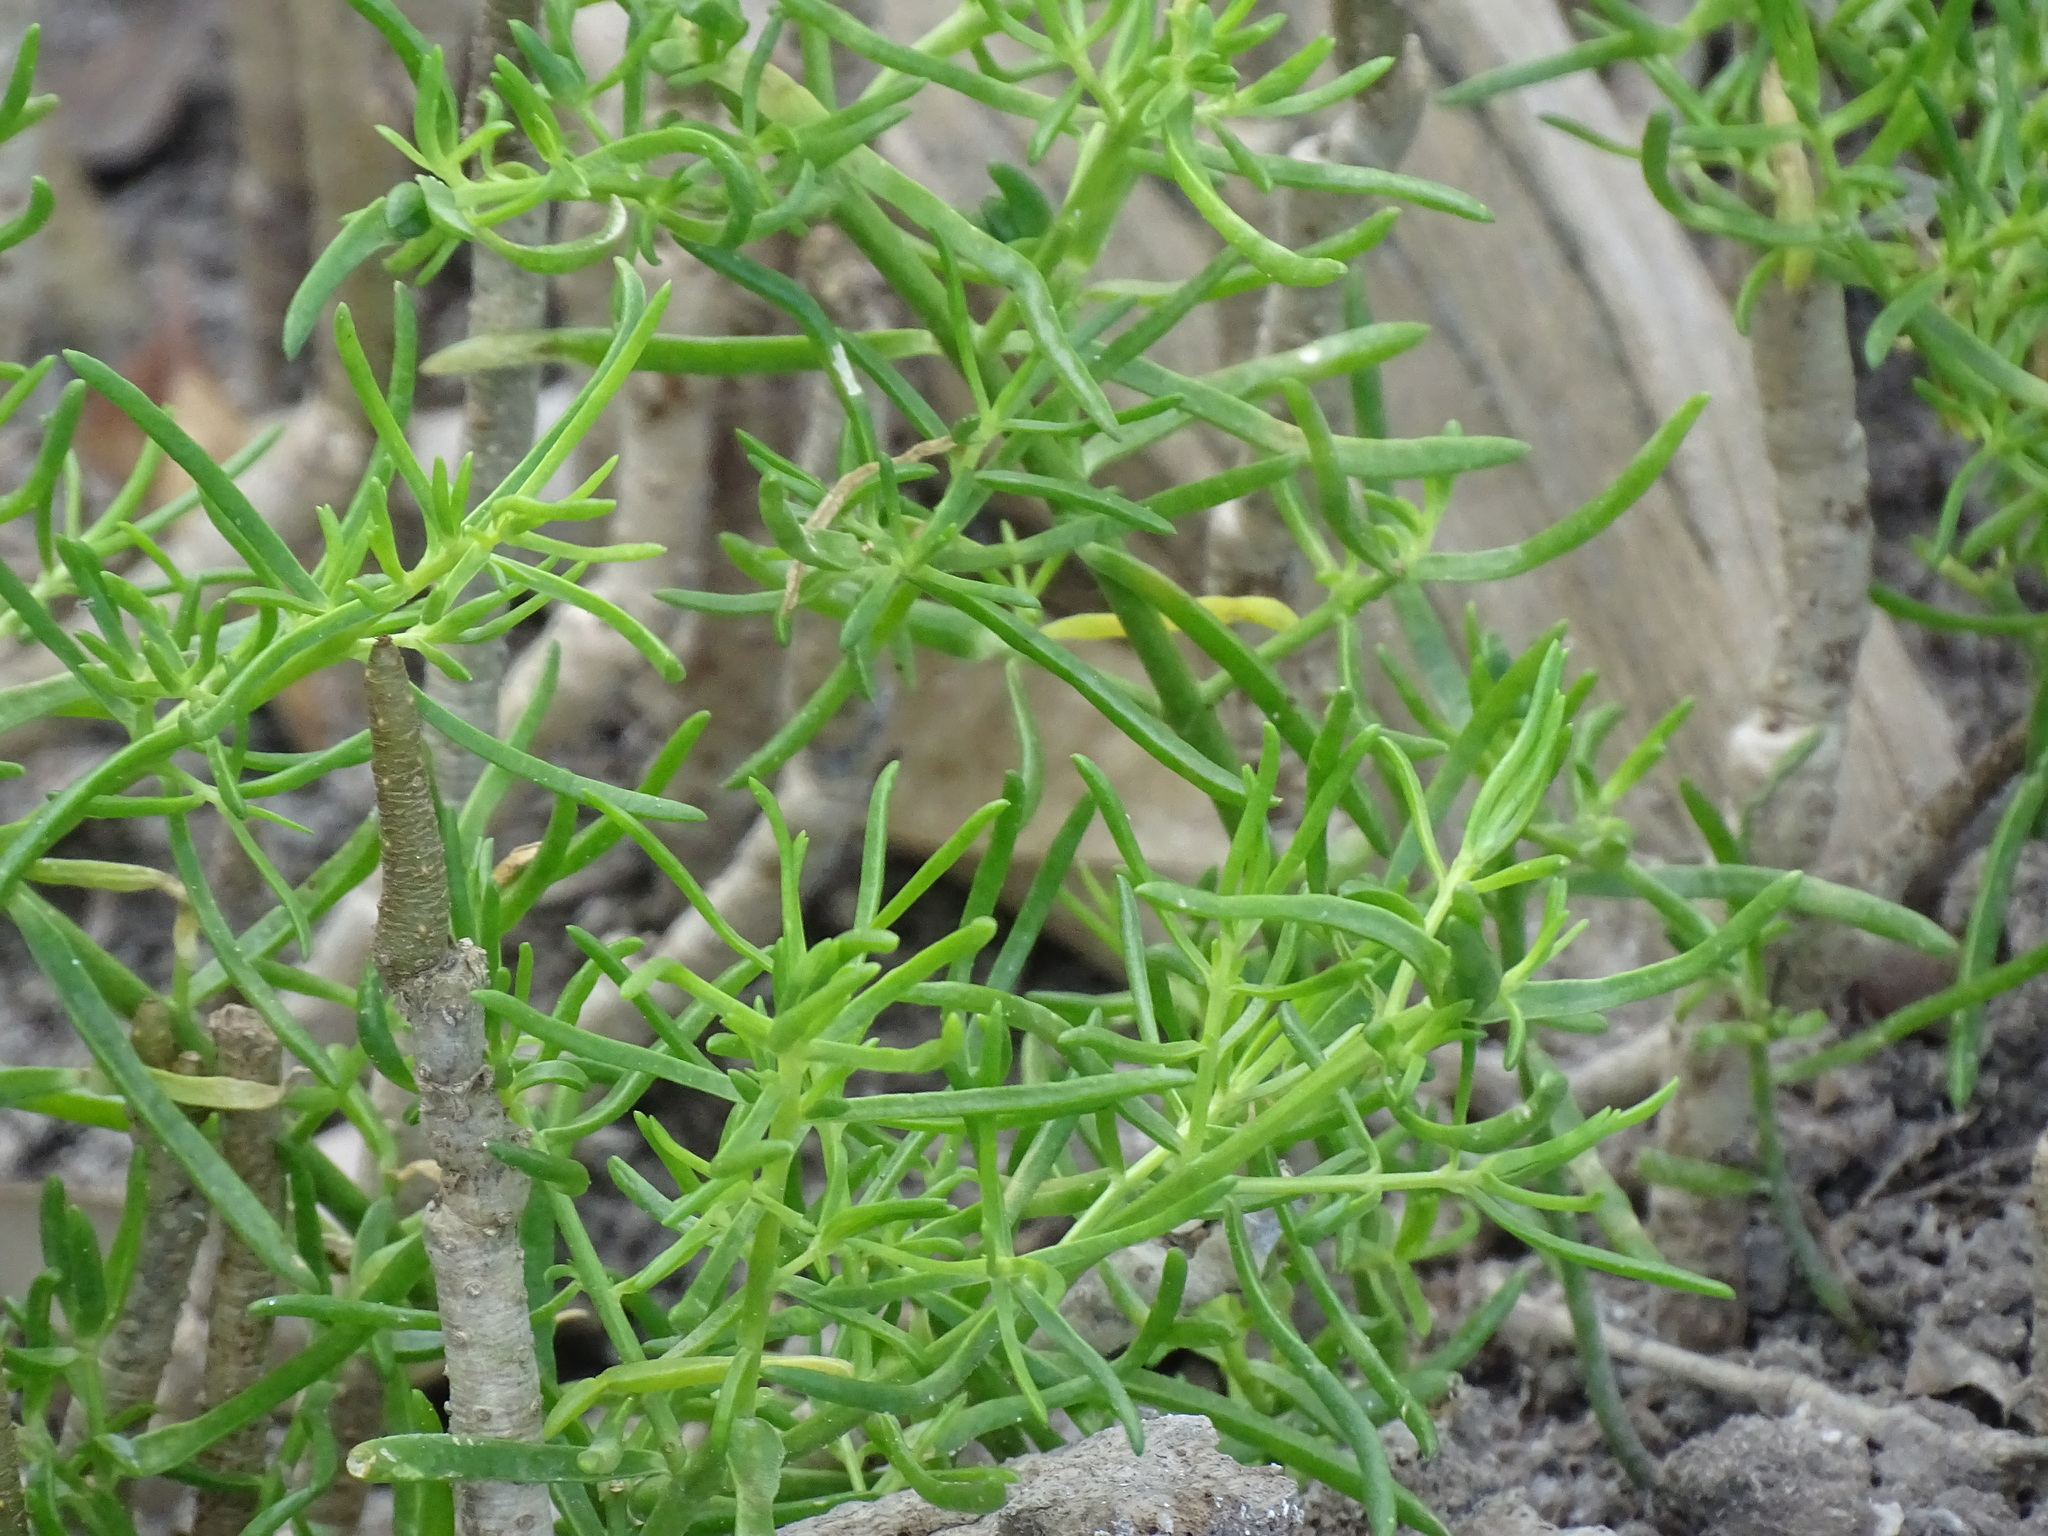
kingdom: Plantae
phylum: Tracheophyta
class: Magnoliopsida
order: Brassicales
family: Bataceae
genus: Batis
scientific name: Batis maritima
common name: Turtleweed
